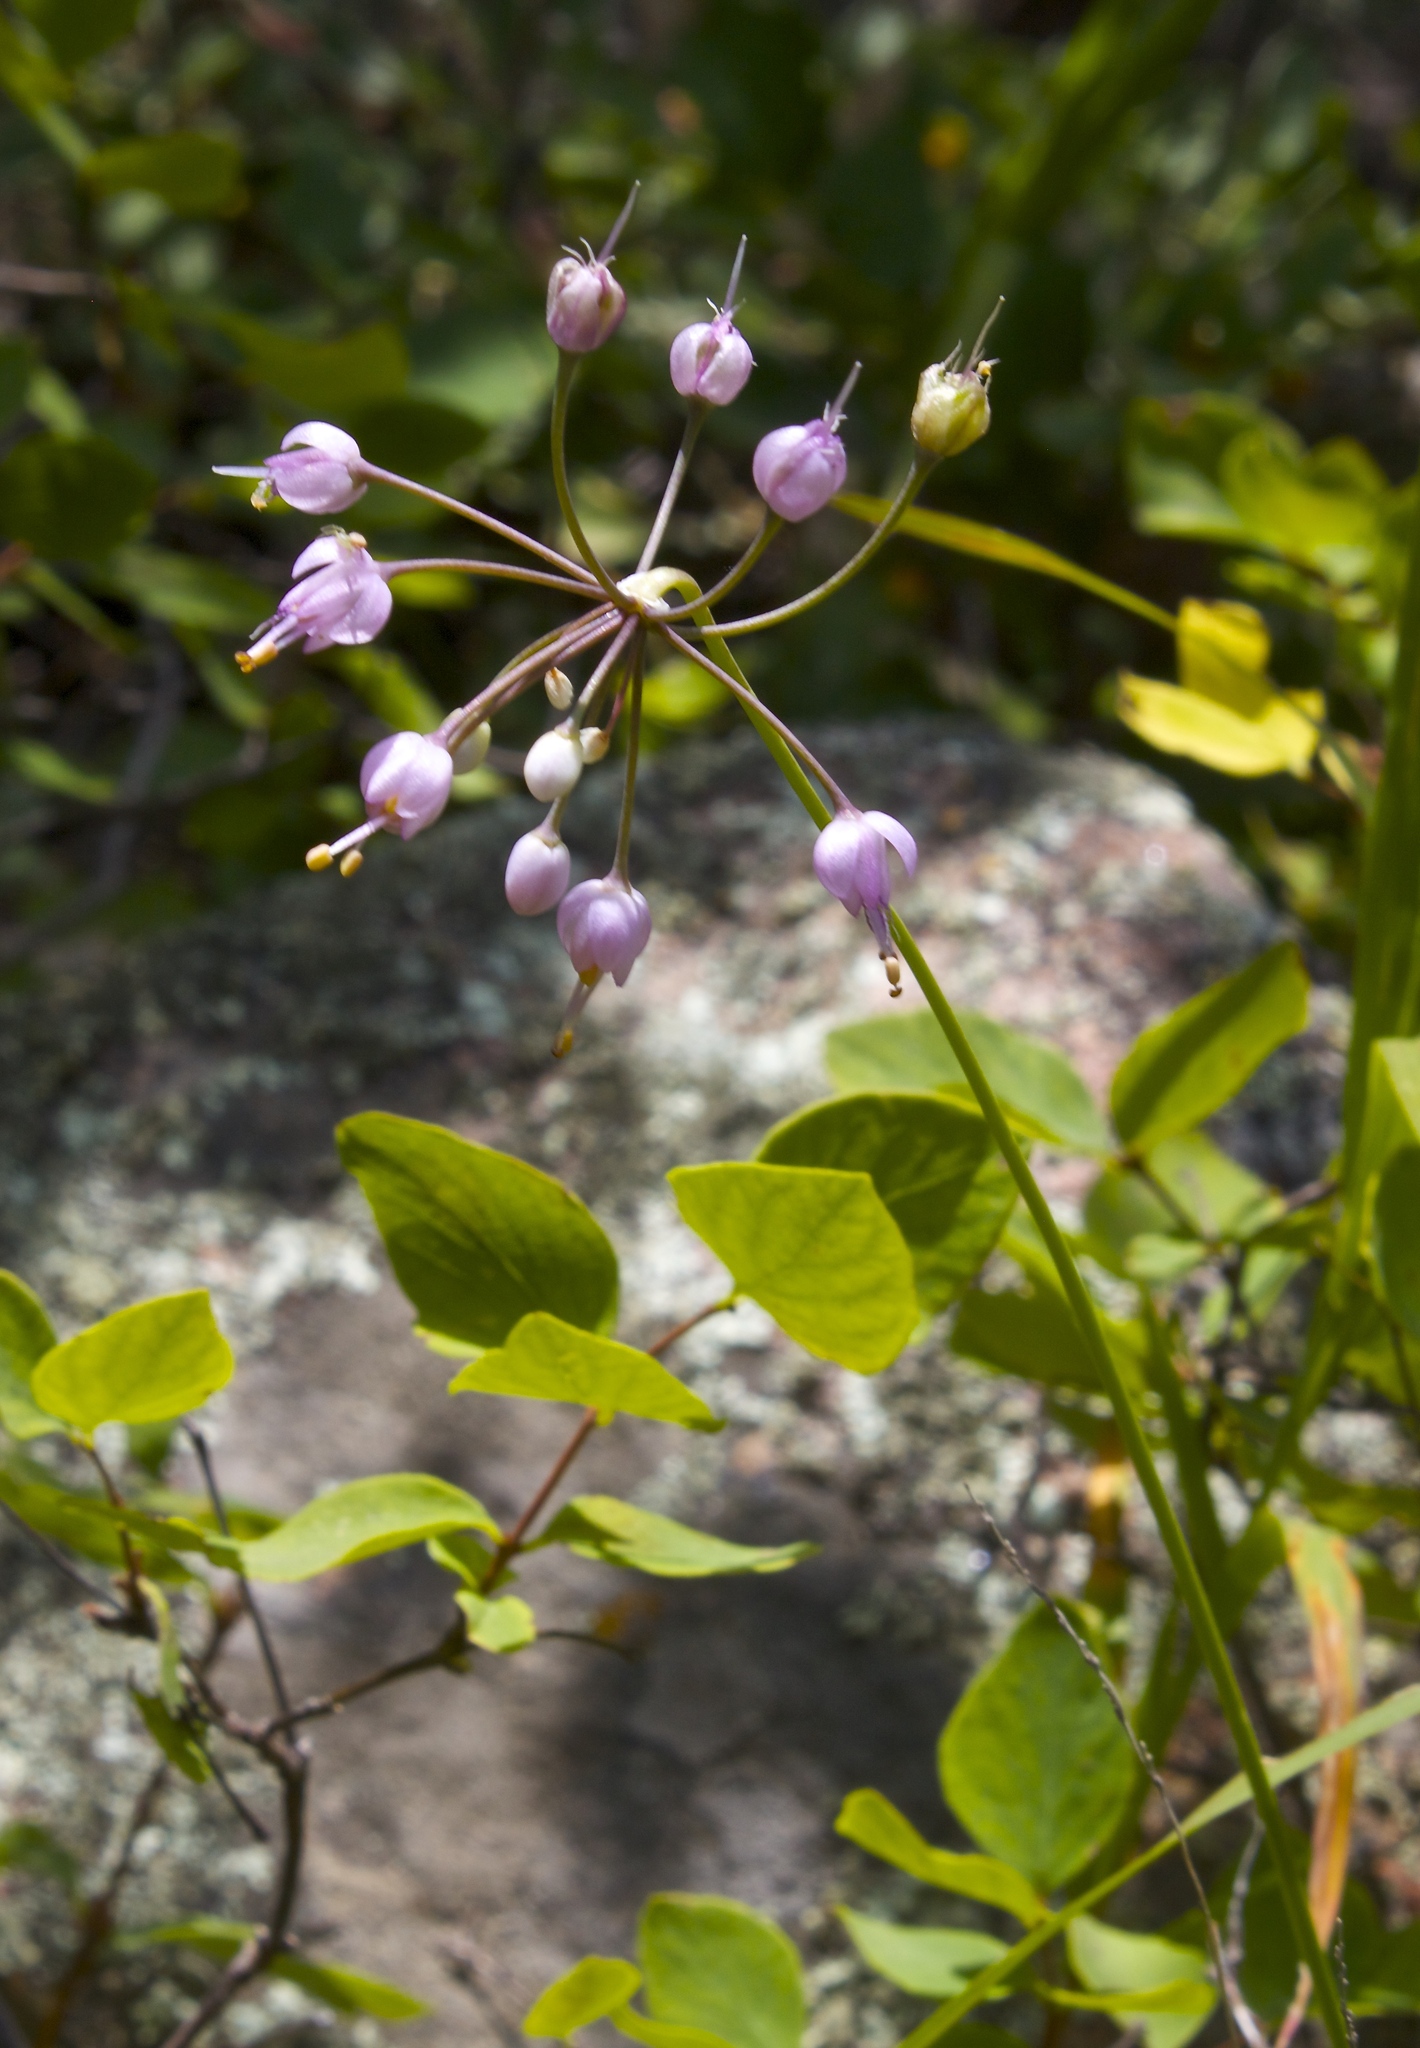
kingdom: Plantae
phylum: Tracheophyta
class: Liliopsida
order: Asparagales
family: Amaryllidaceae
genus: Allium
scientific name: Allium cernuum
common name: Nodding onion
